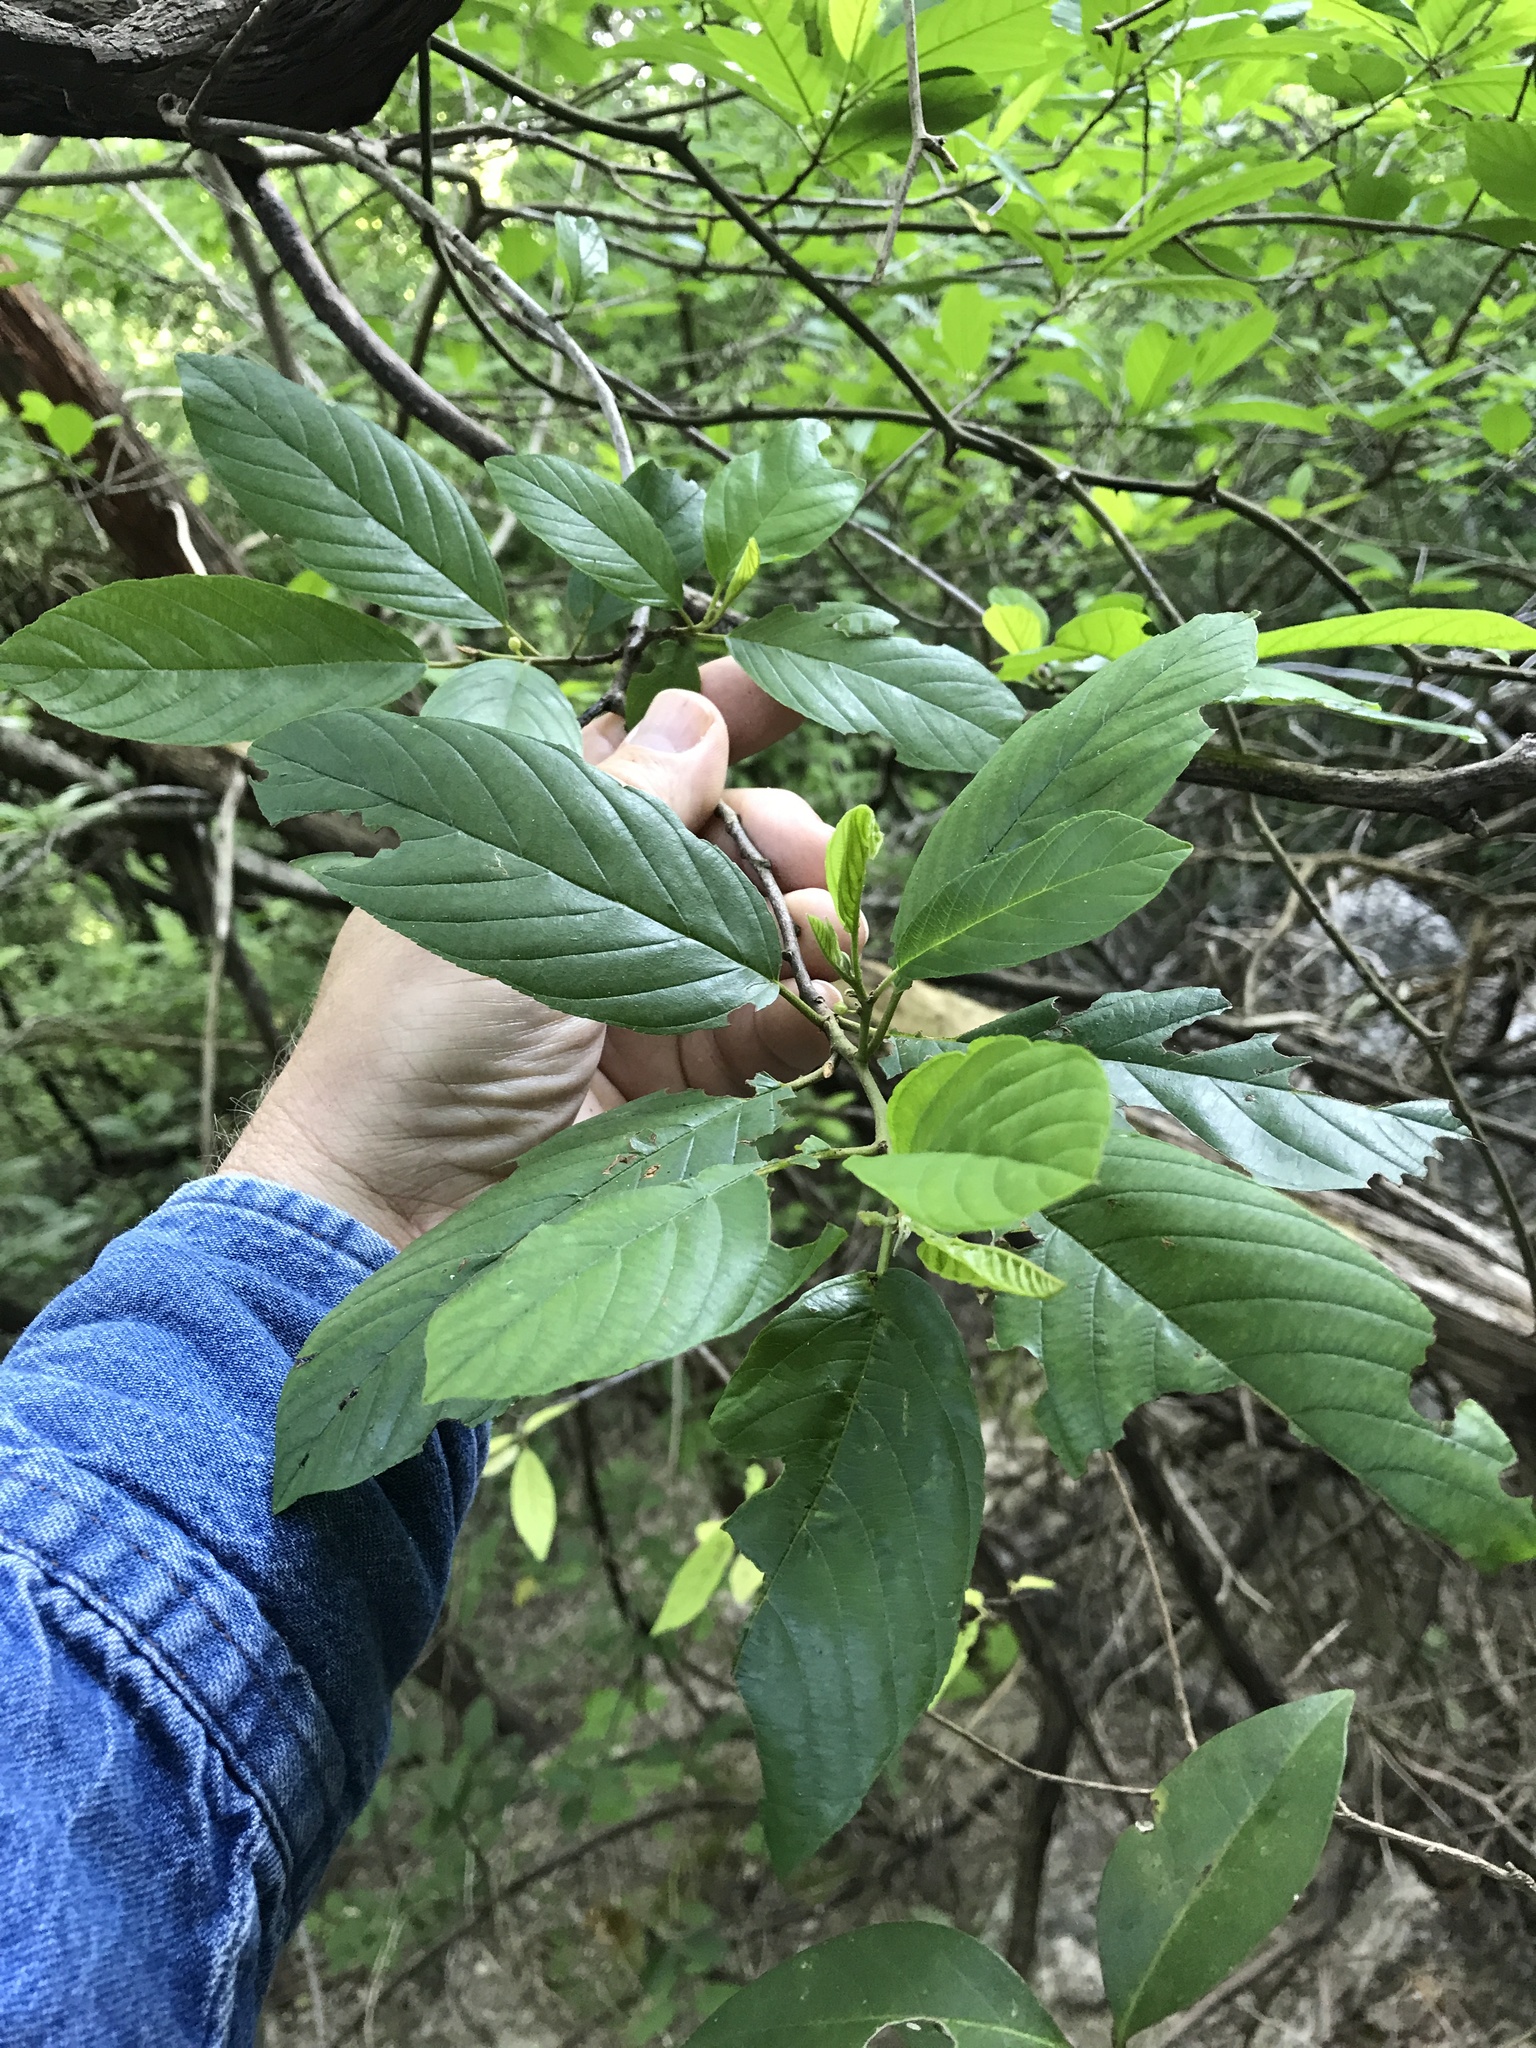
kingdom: Plantae
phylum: Tracheophyta
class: Magnoliopsida
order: Rosales
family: Rhamnaceae
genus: Frangula
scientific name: Frangula caroliniana
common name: Carolina buckthorn
